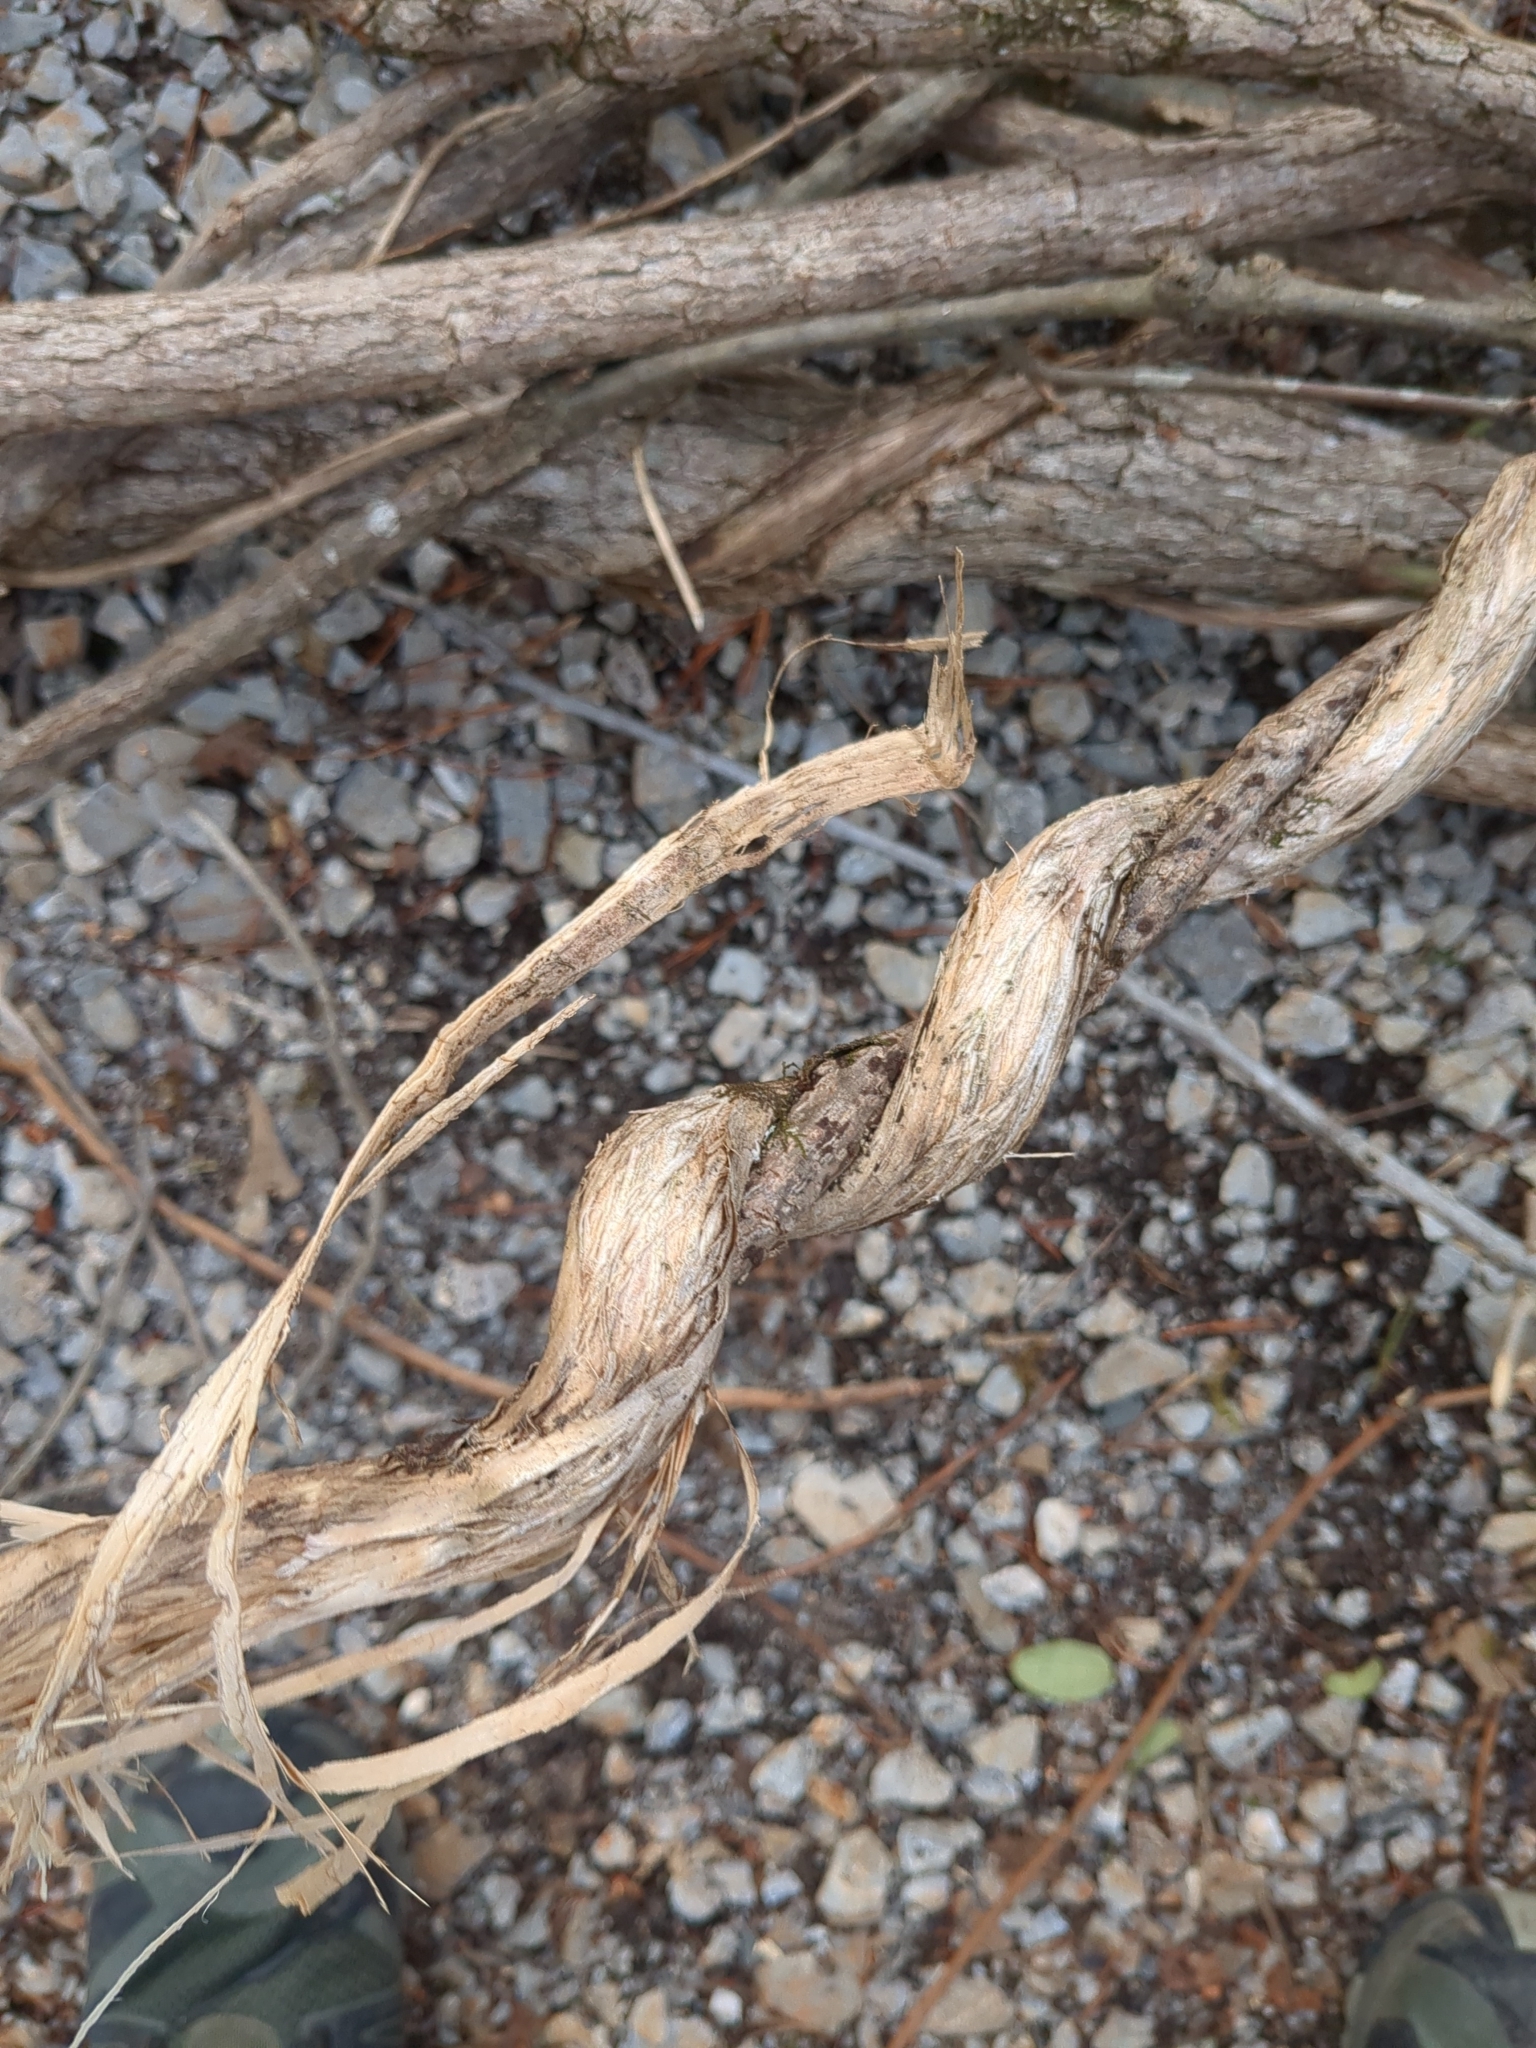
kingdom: Plantae
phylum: Tracheophyta
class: Magnoliopsida
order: Dipsacales
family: Caprifoliaceae
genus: Lonicera
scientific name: Lonicera japonica
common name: Japanese honeysuckle
